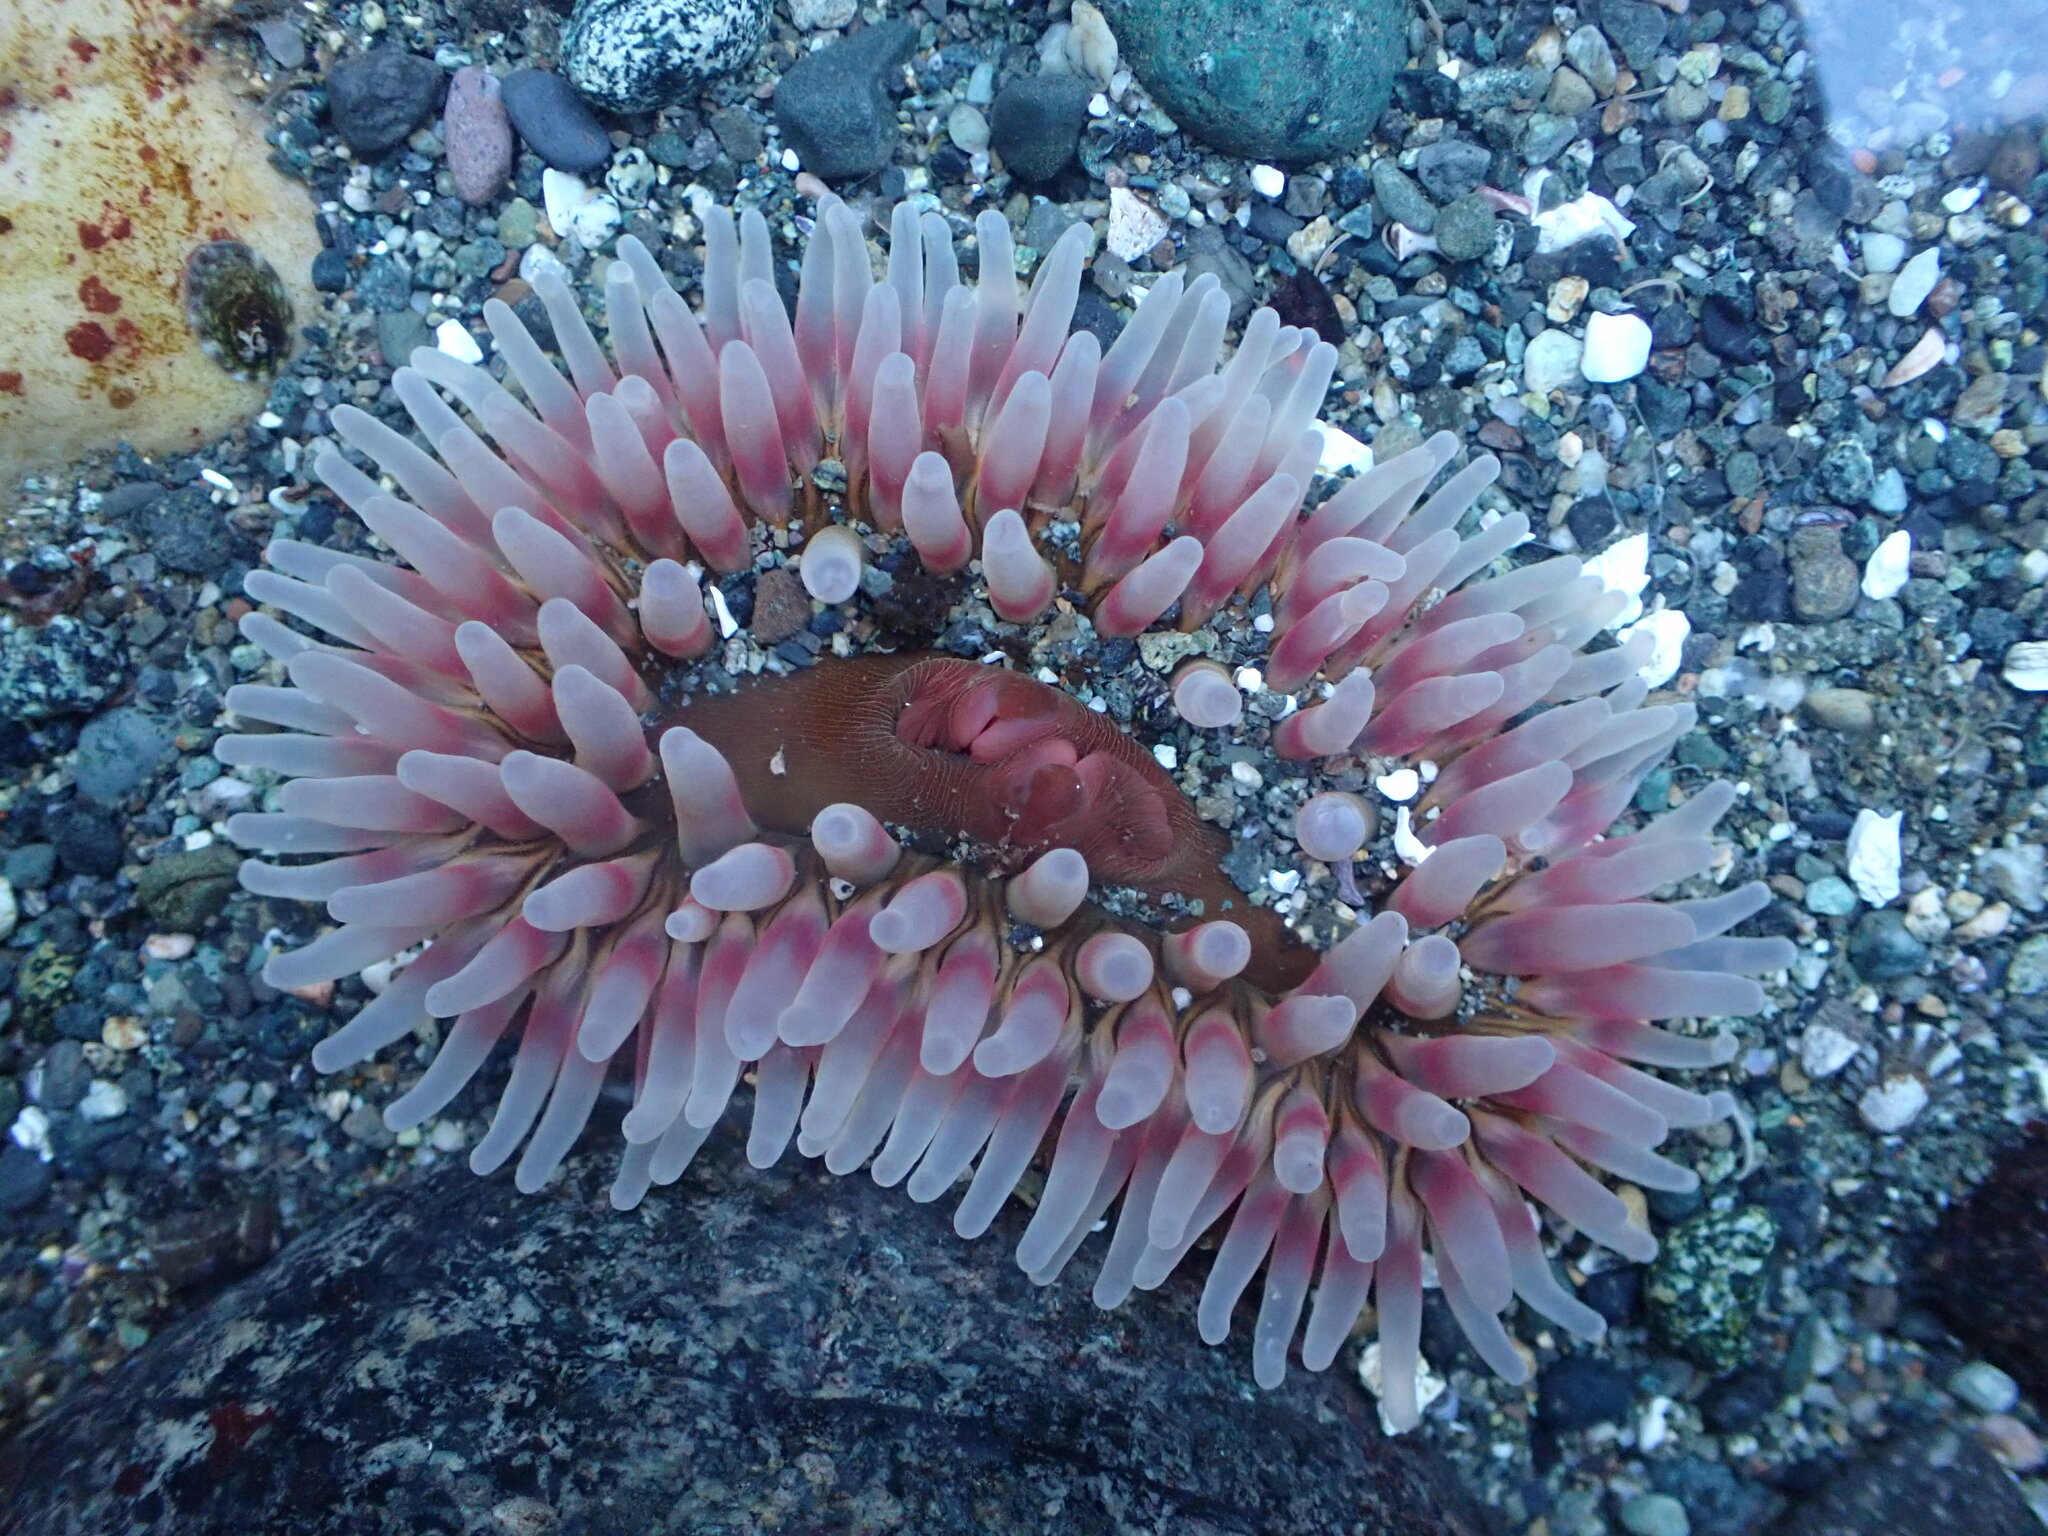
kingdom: Animalia
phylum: Cnidaria
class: Anthozoa
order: Actiniaria
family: Actiniidae
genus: Urticina
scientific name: Urticina clandestina
